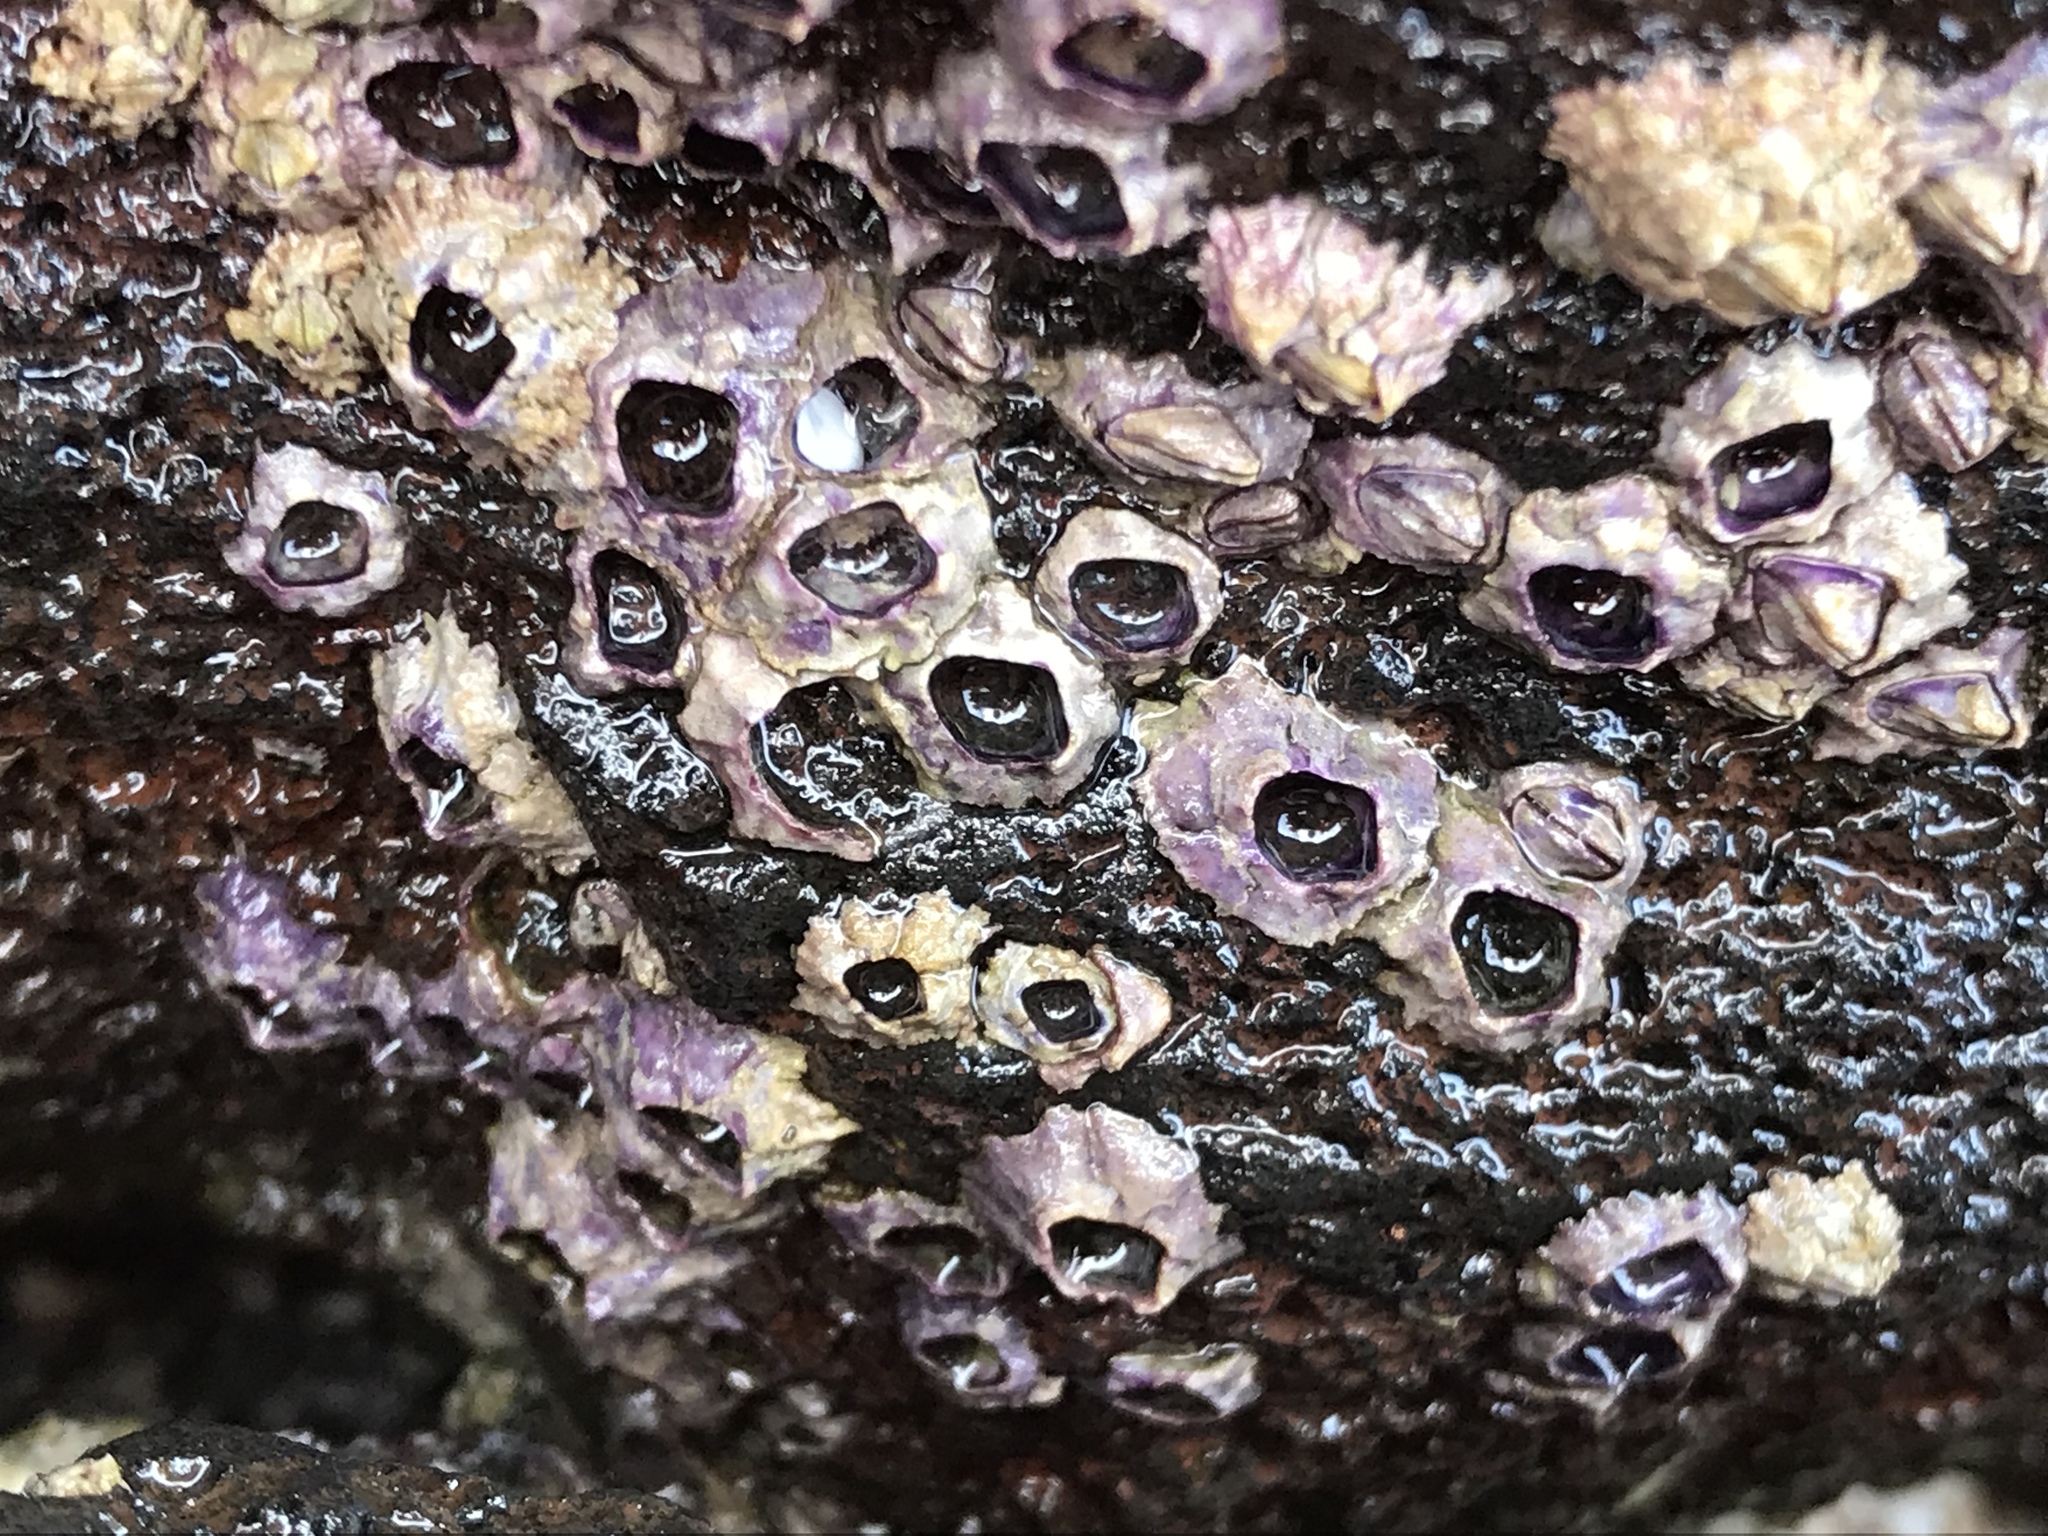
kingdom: Animalia
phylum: Arthropoda
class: Maxillopoda
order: Sessilia
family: Chthamalidae
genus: Nesochthamalus
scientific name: Nesochthamalus intertextus
